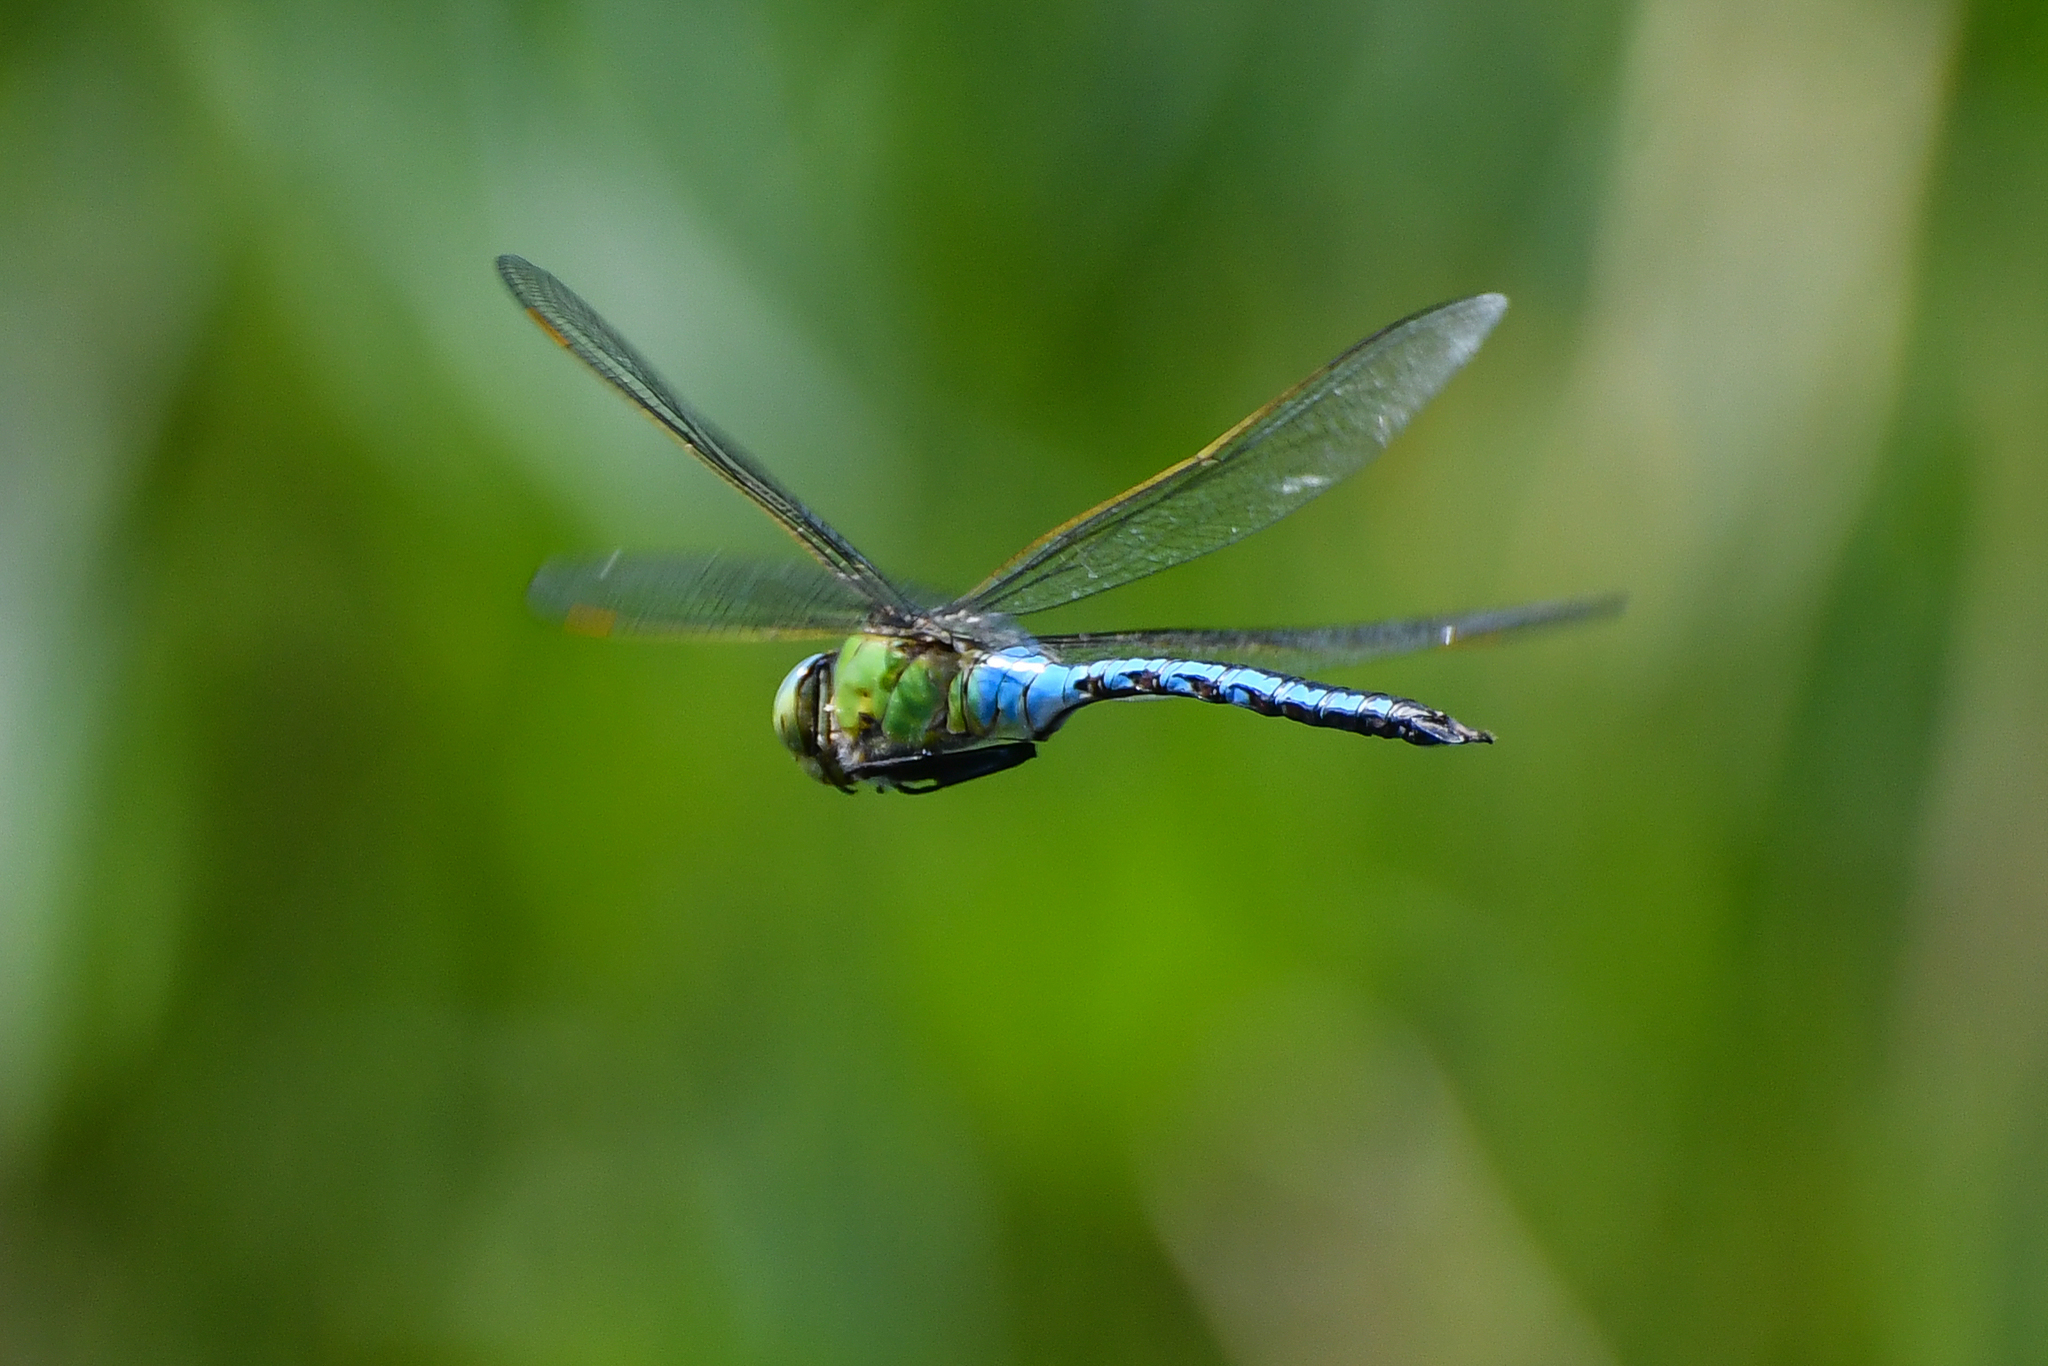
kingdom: Animalia
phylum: Arthropoda
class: Insecta
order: Odonata
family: Aeshnidae
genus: Anax
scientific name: Anax imperator
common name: Emperor dragonfly
